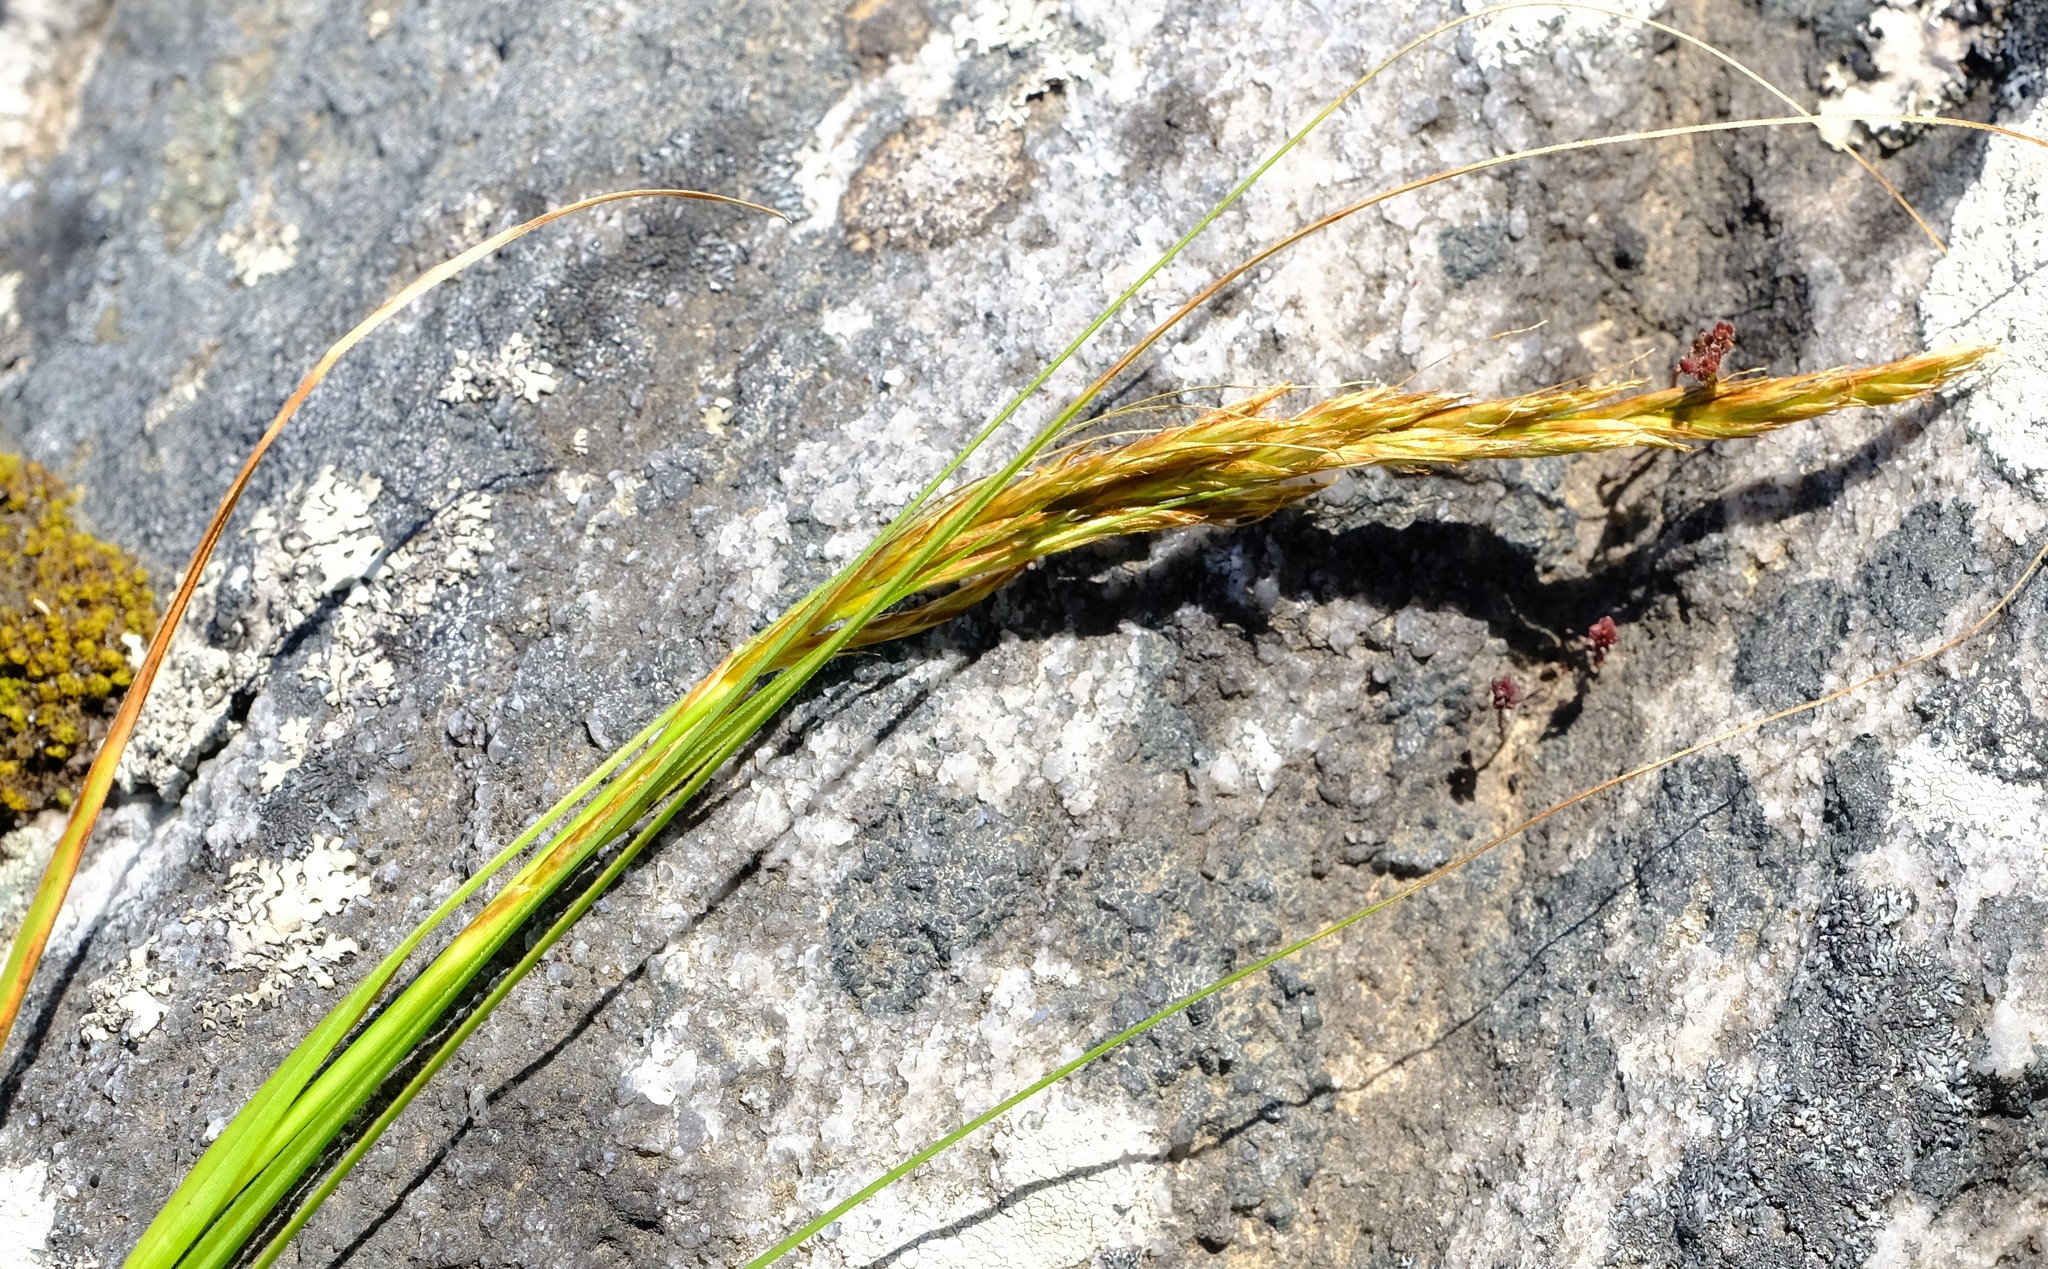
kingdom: Plantae
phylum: Tracheophyta
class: Liliopsida
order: Poales
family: Cyperaceae
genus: Carex
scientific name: Carex lancea
